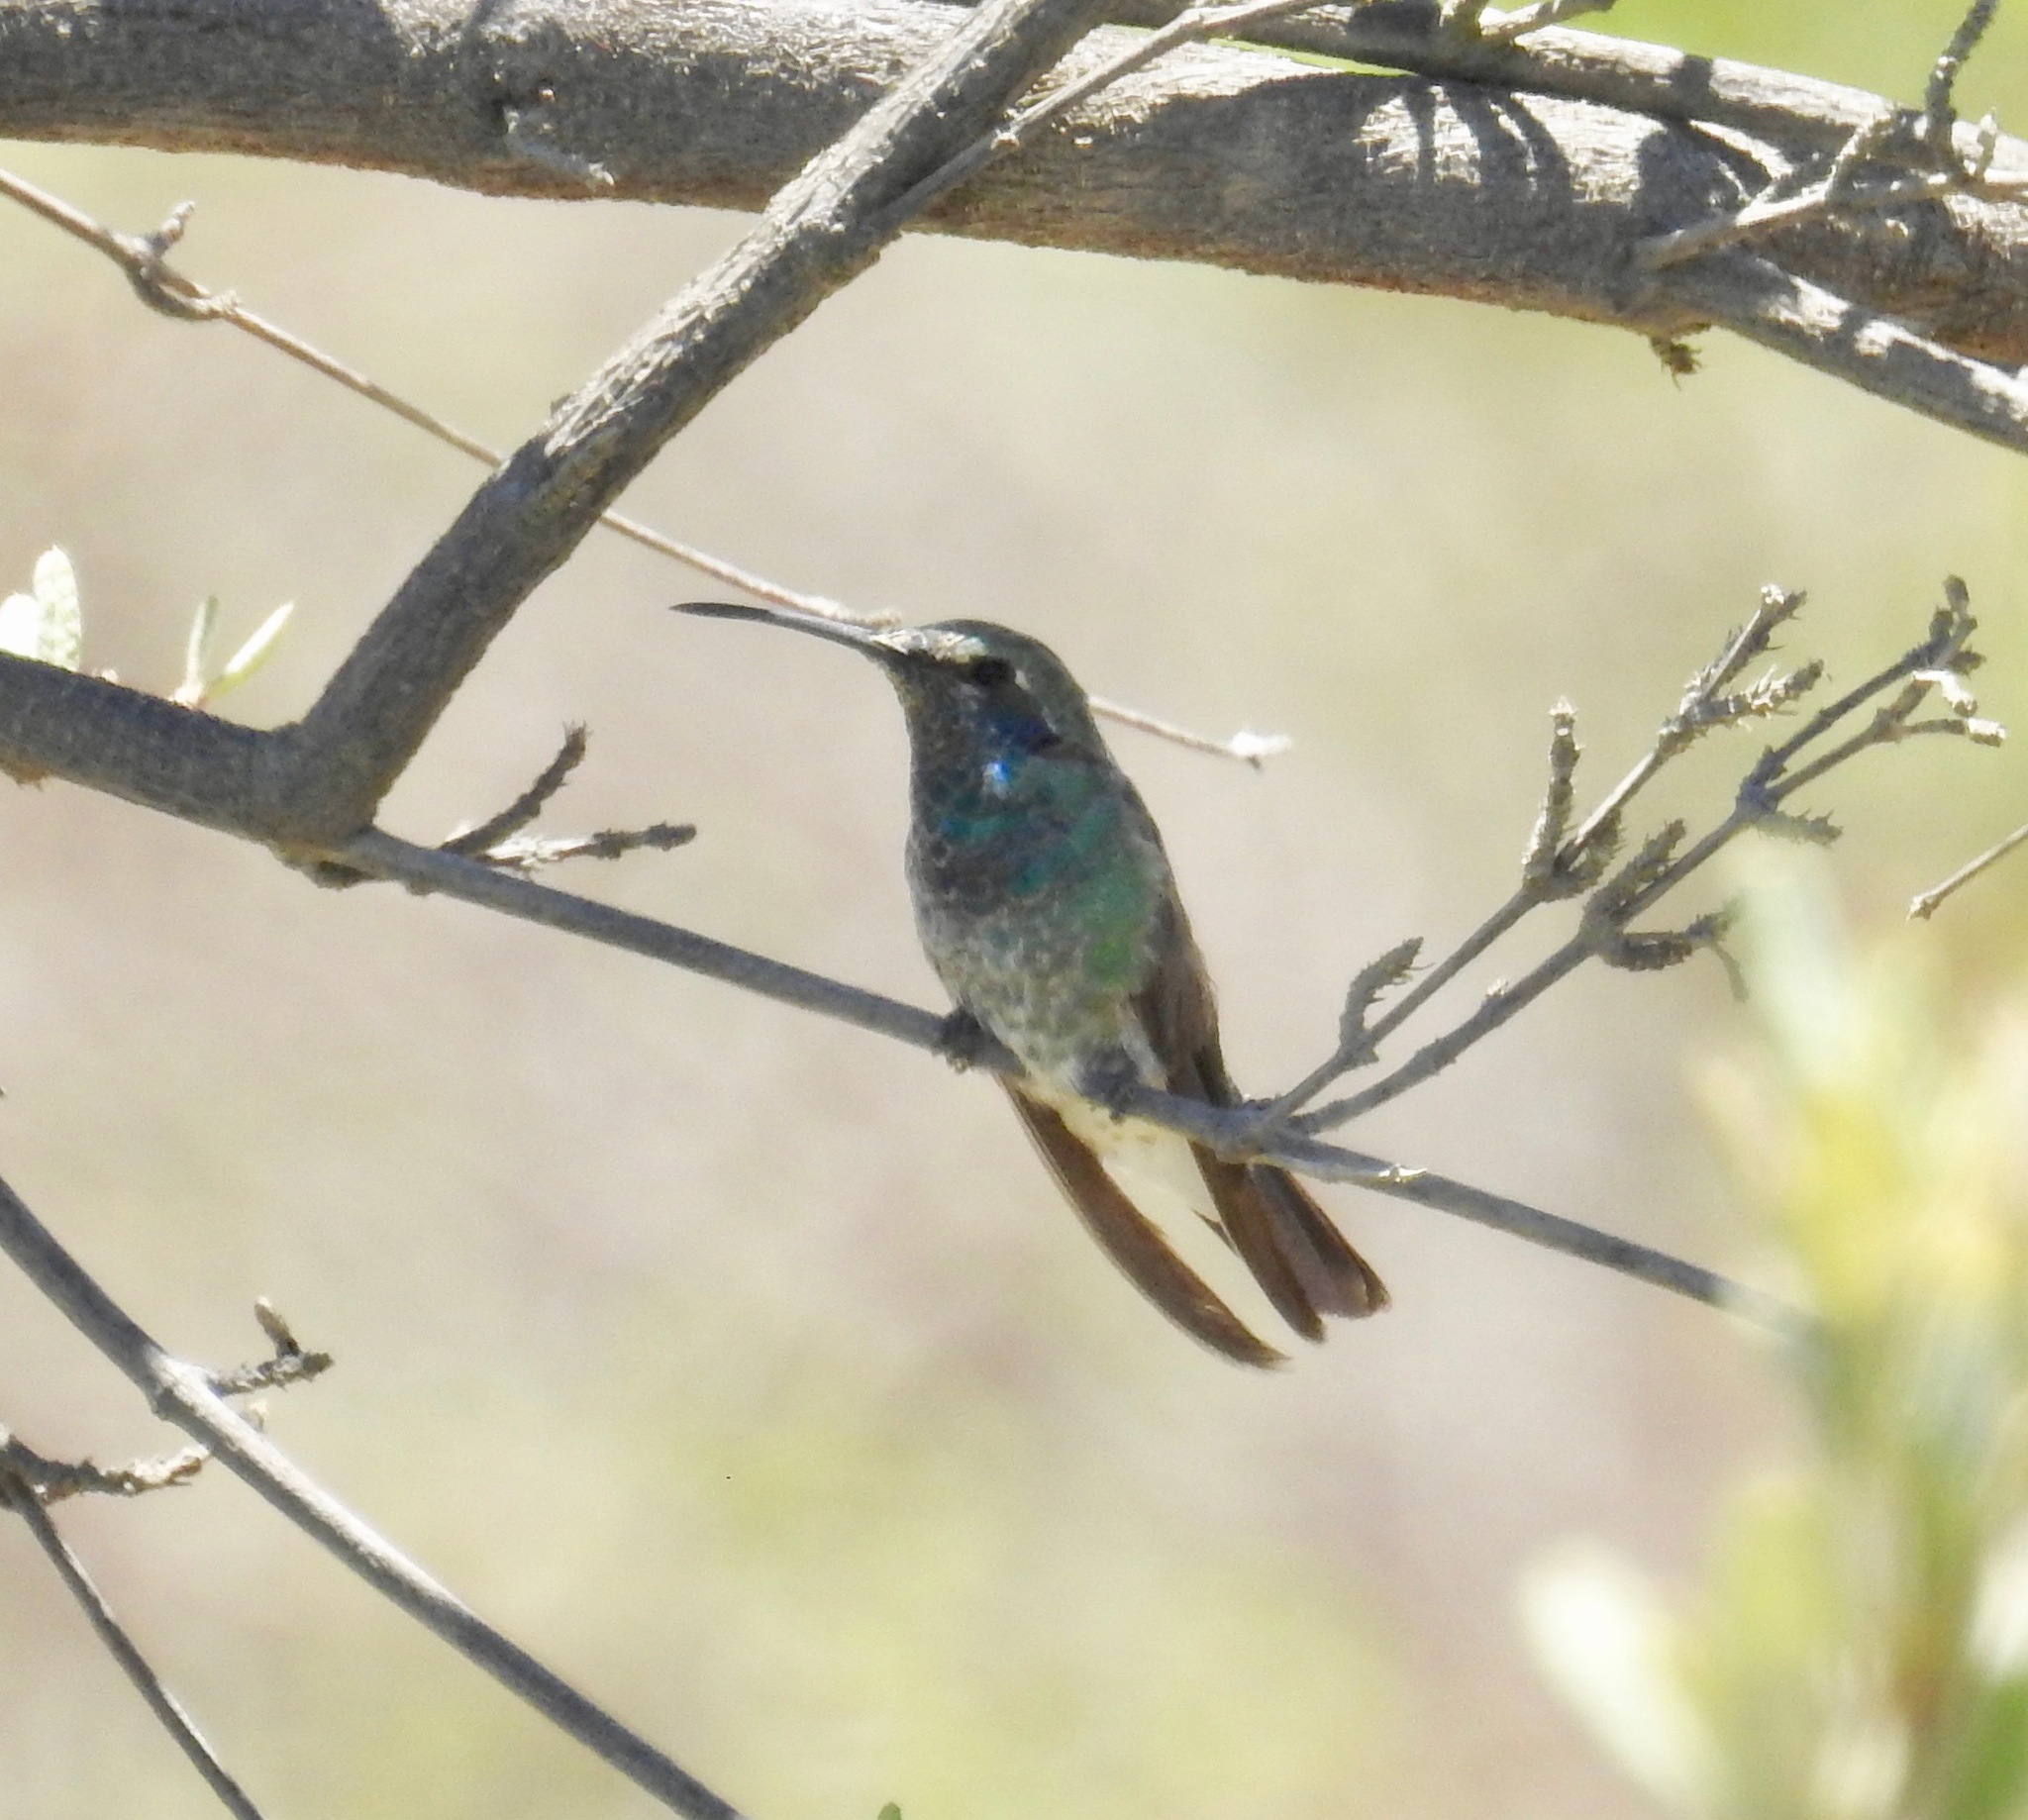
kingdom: Animalia
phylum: Chordata
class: Aves
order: Apodiformes
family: Trochilidae
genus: Colibri
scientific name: Colibri serrirostris
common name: White-vented violetear
